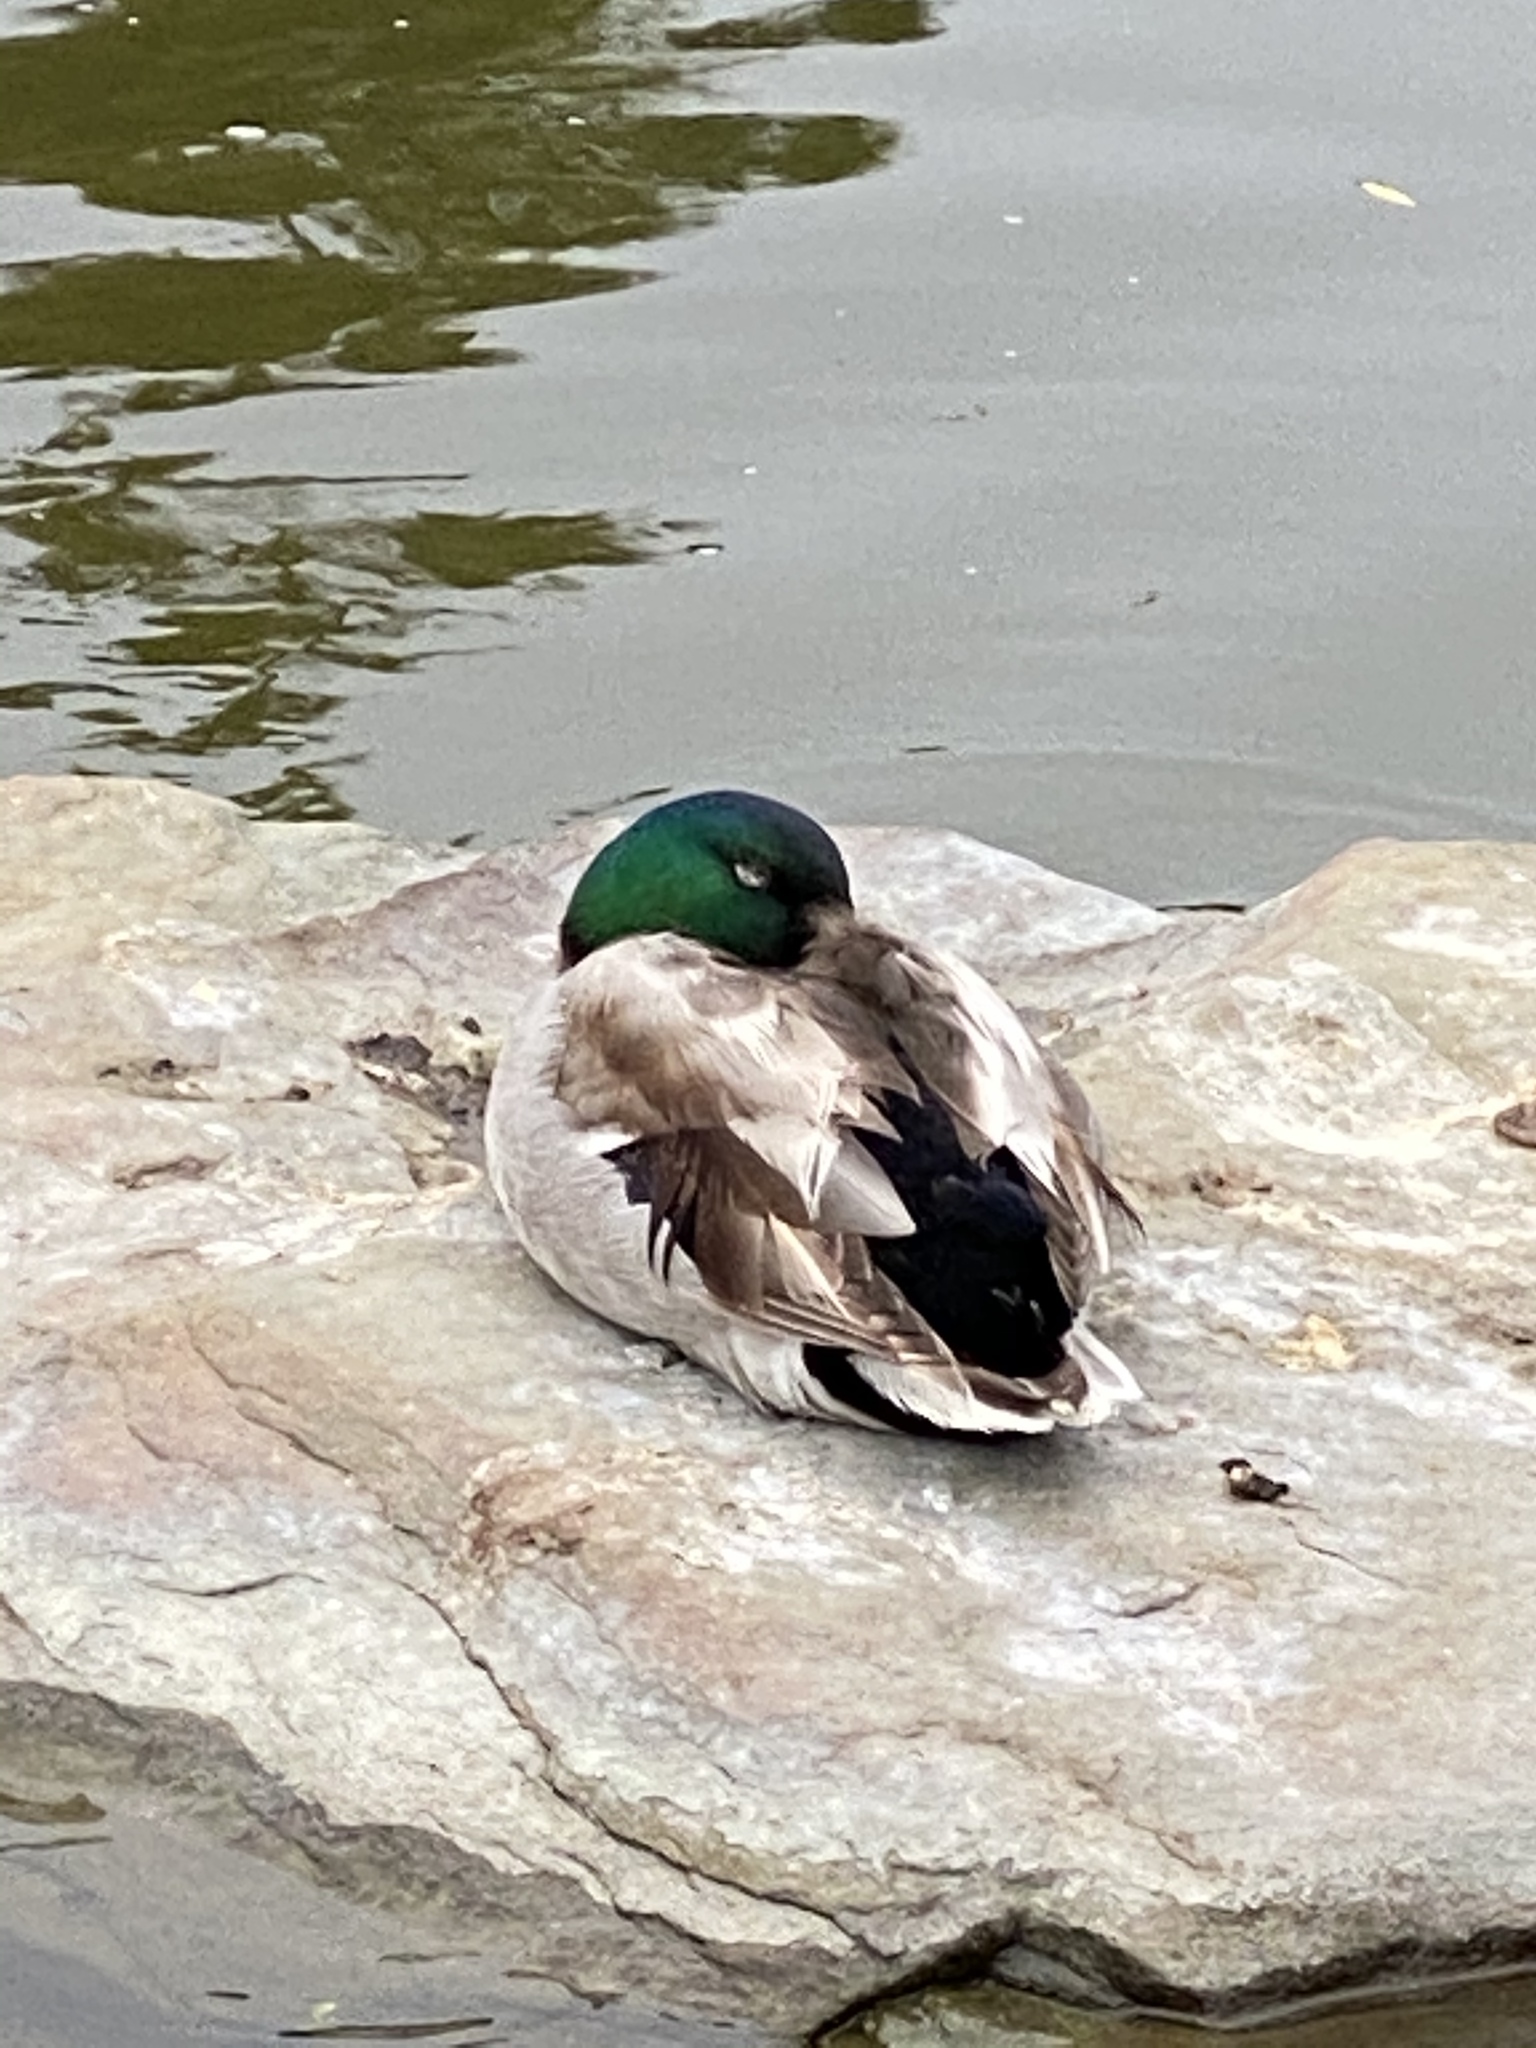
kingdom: Animalia
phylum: Chordata
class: Aves
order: Anseriformes
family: Anatidae
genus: Anas
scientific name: Anas platyrhynchos
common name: Mallard
